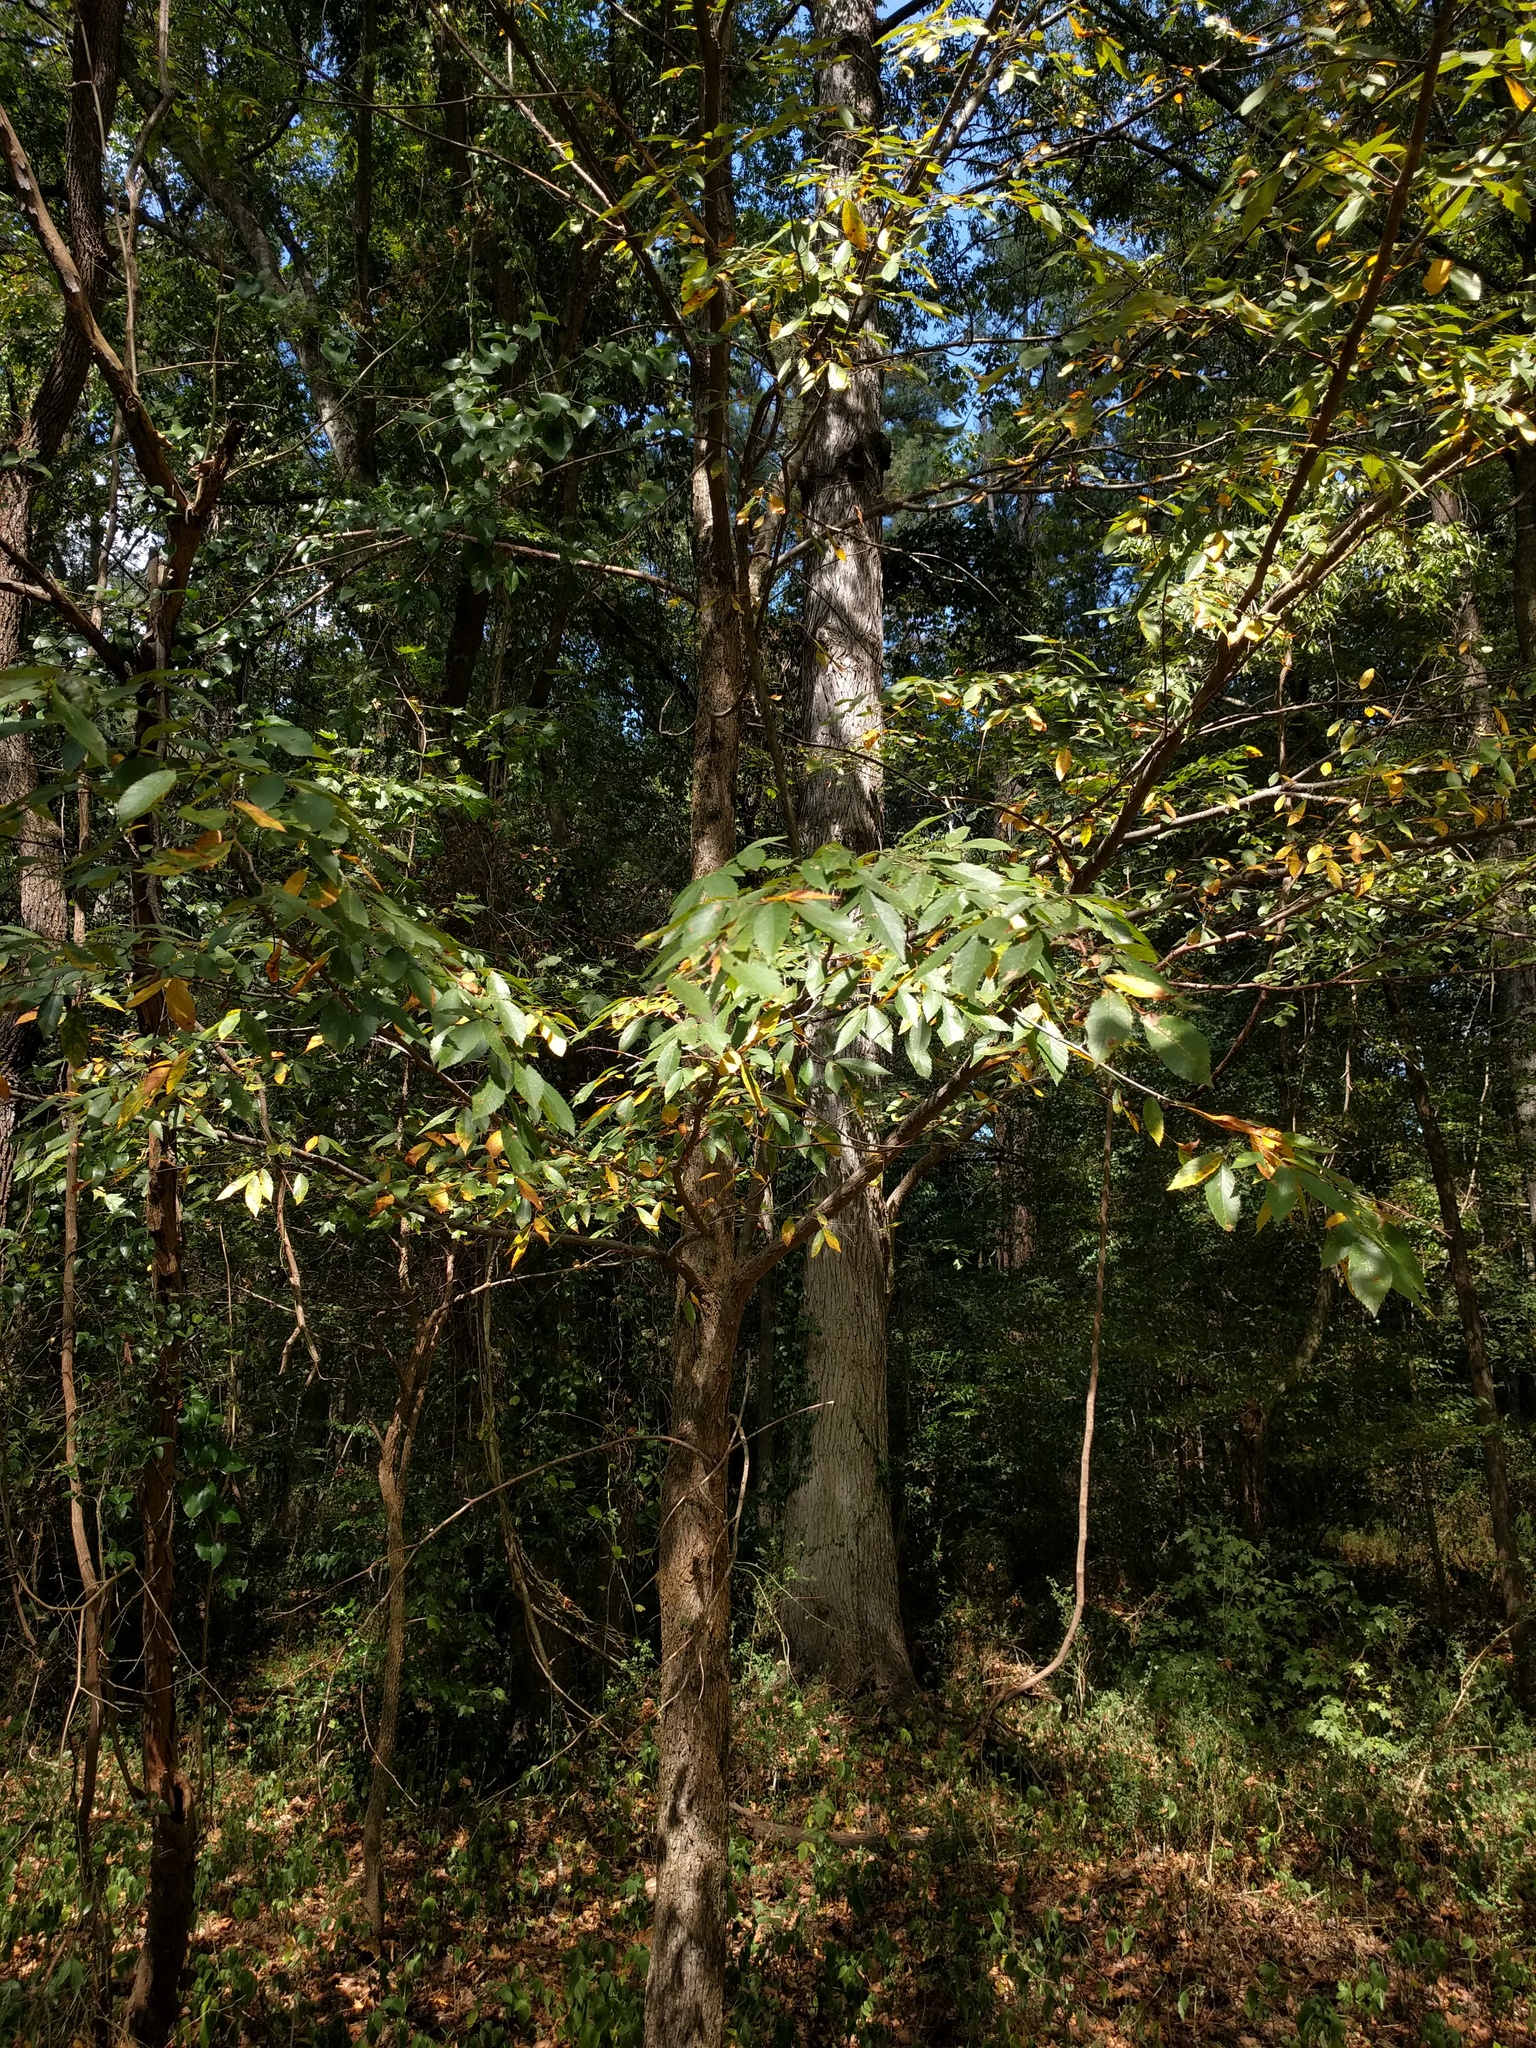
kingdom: Plantae
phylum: Tracheophyta
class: Magnoliopsida
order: Rosales
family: Ulmaceae
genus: Ulmus
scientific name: Ulmus alata
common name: Winged elm
